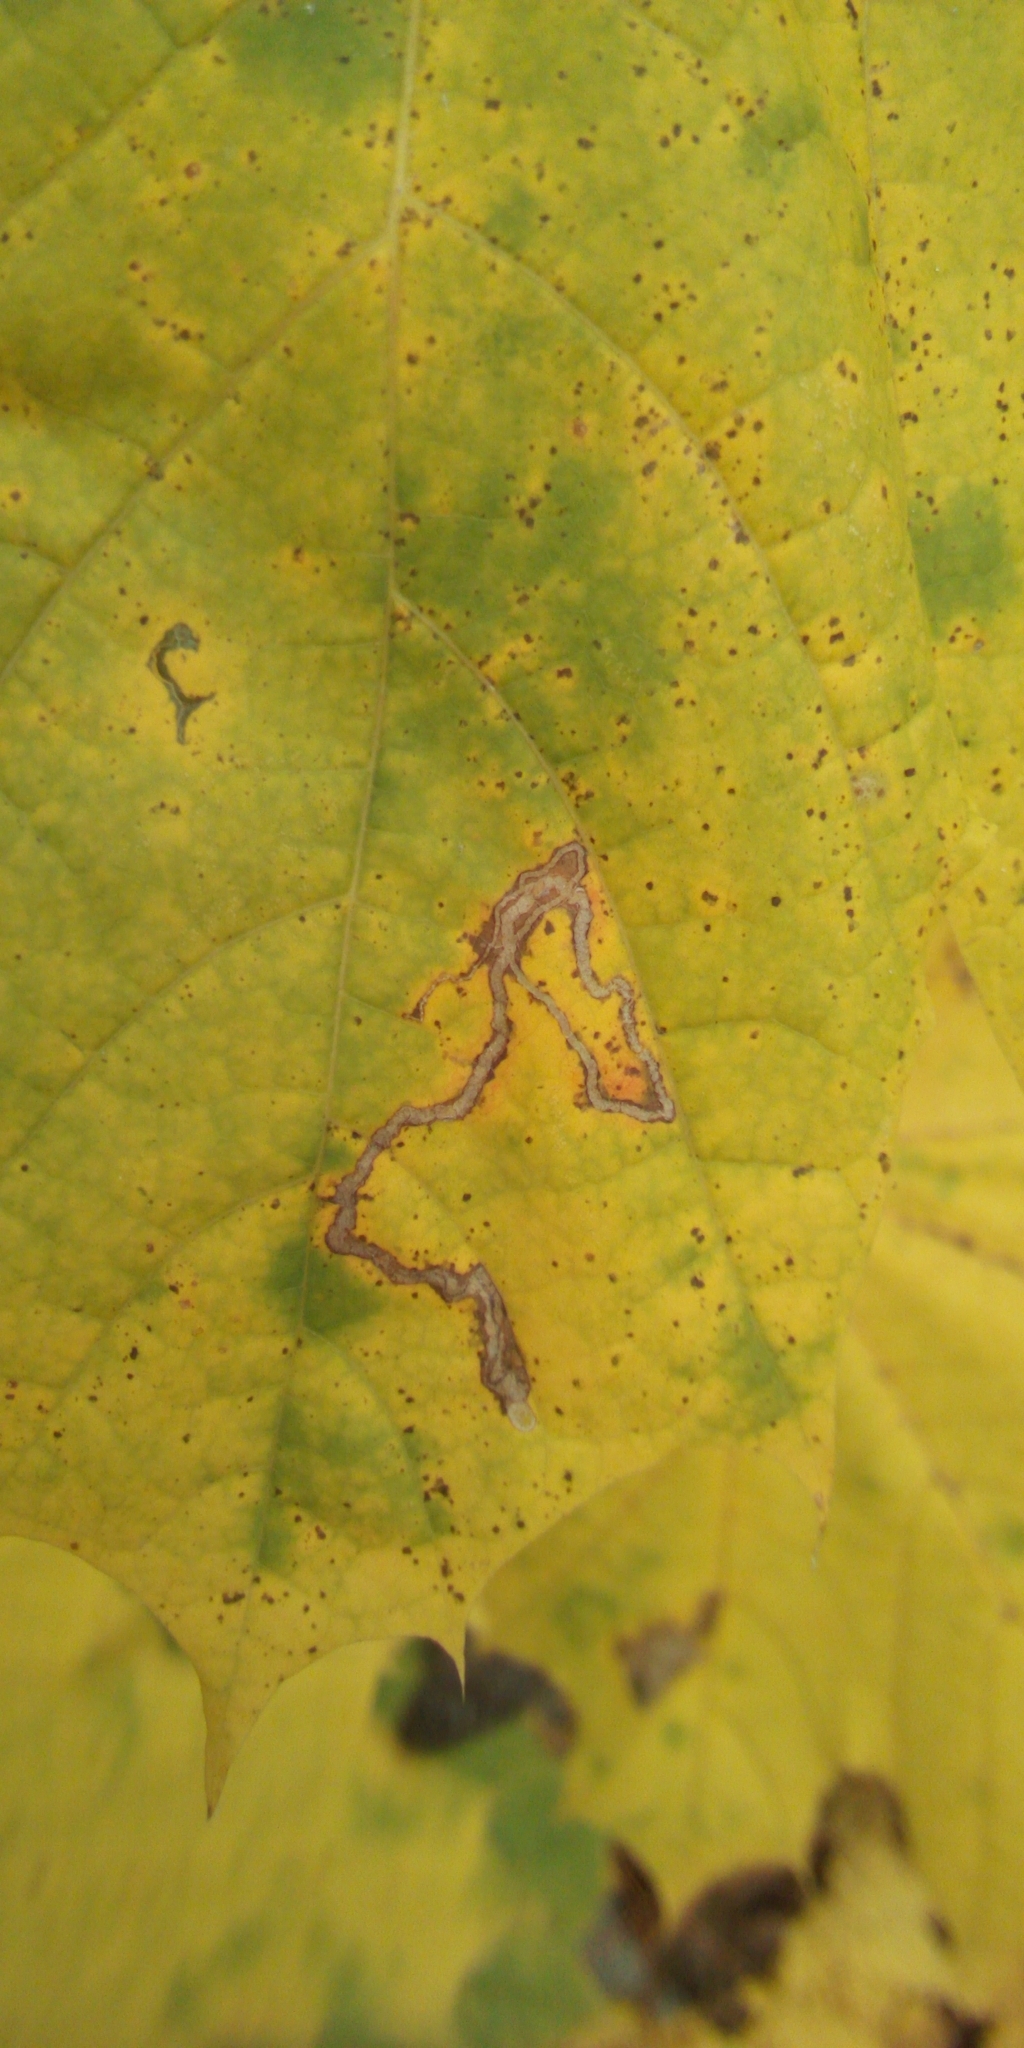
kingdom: Animalia
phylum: Arthropoda
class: Insecta
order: Lepidoptera
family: Nepticulidae
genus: Stigmella
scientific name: Stigmella aceris
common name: Scarce maple pigmy
